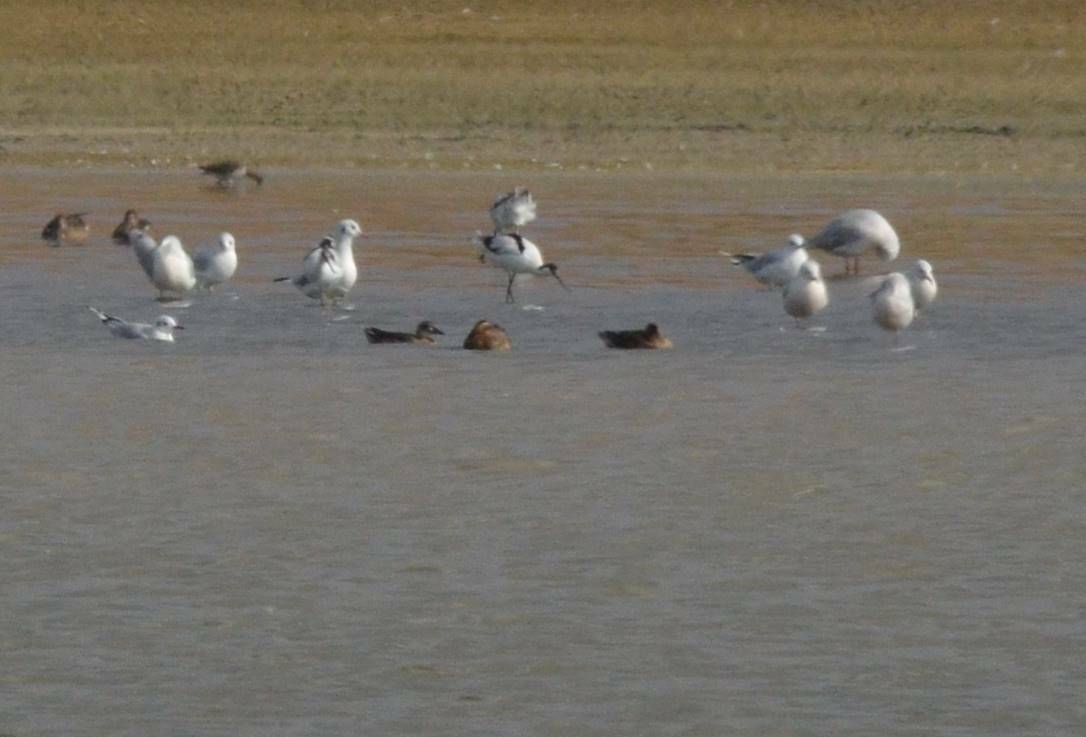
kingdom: Animalia
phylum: Chordata
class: Aves
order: Charadriiformes
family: Laridae
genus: Chroicocephalus
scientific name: Chroicocephalus ridibundus
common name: Black-headed gull
